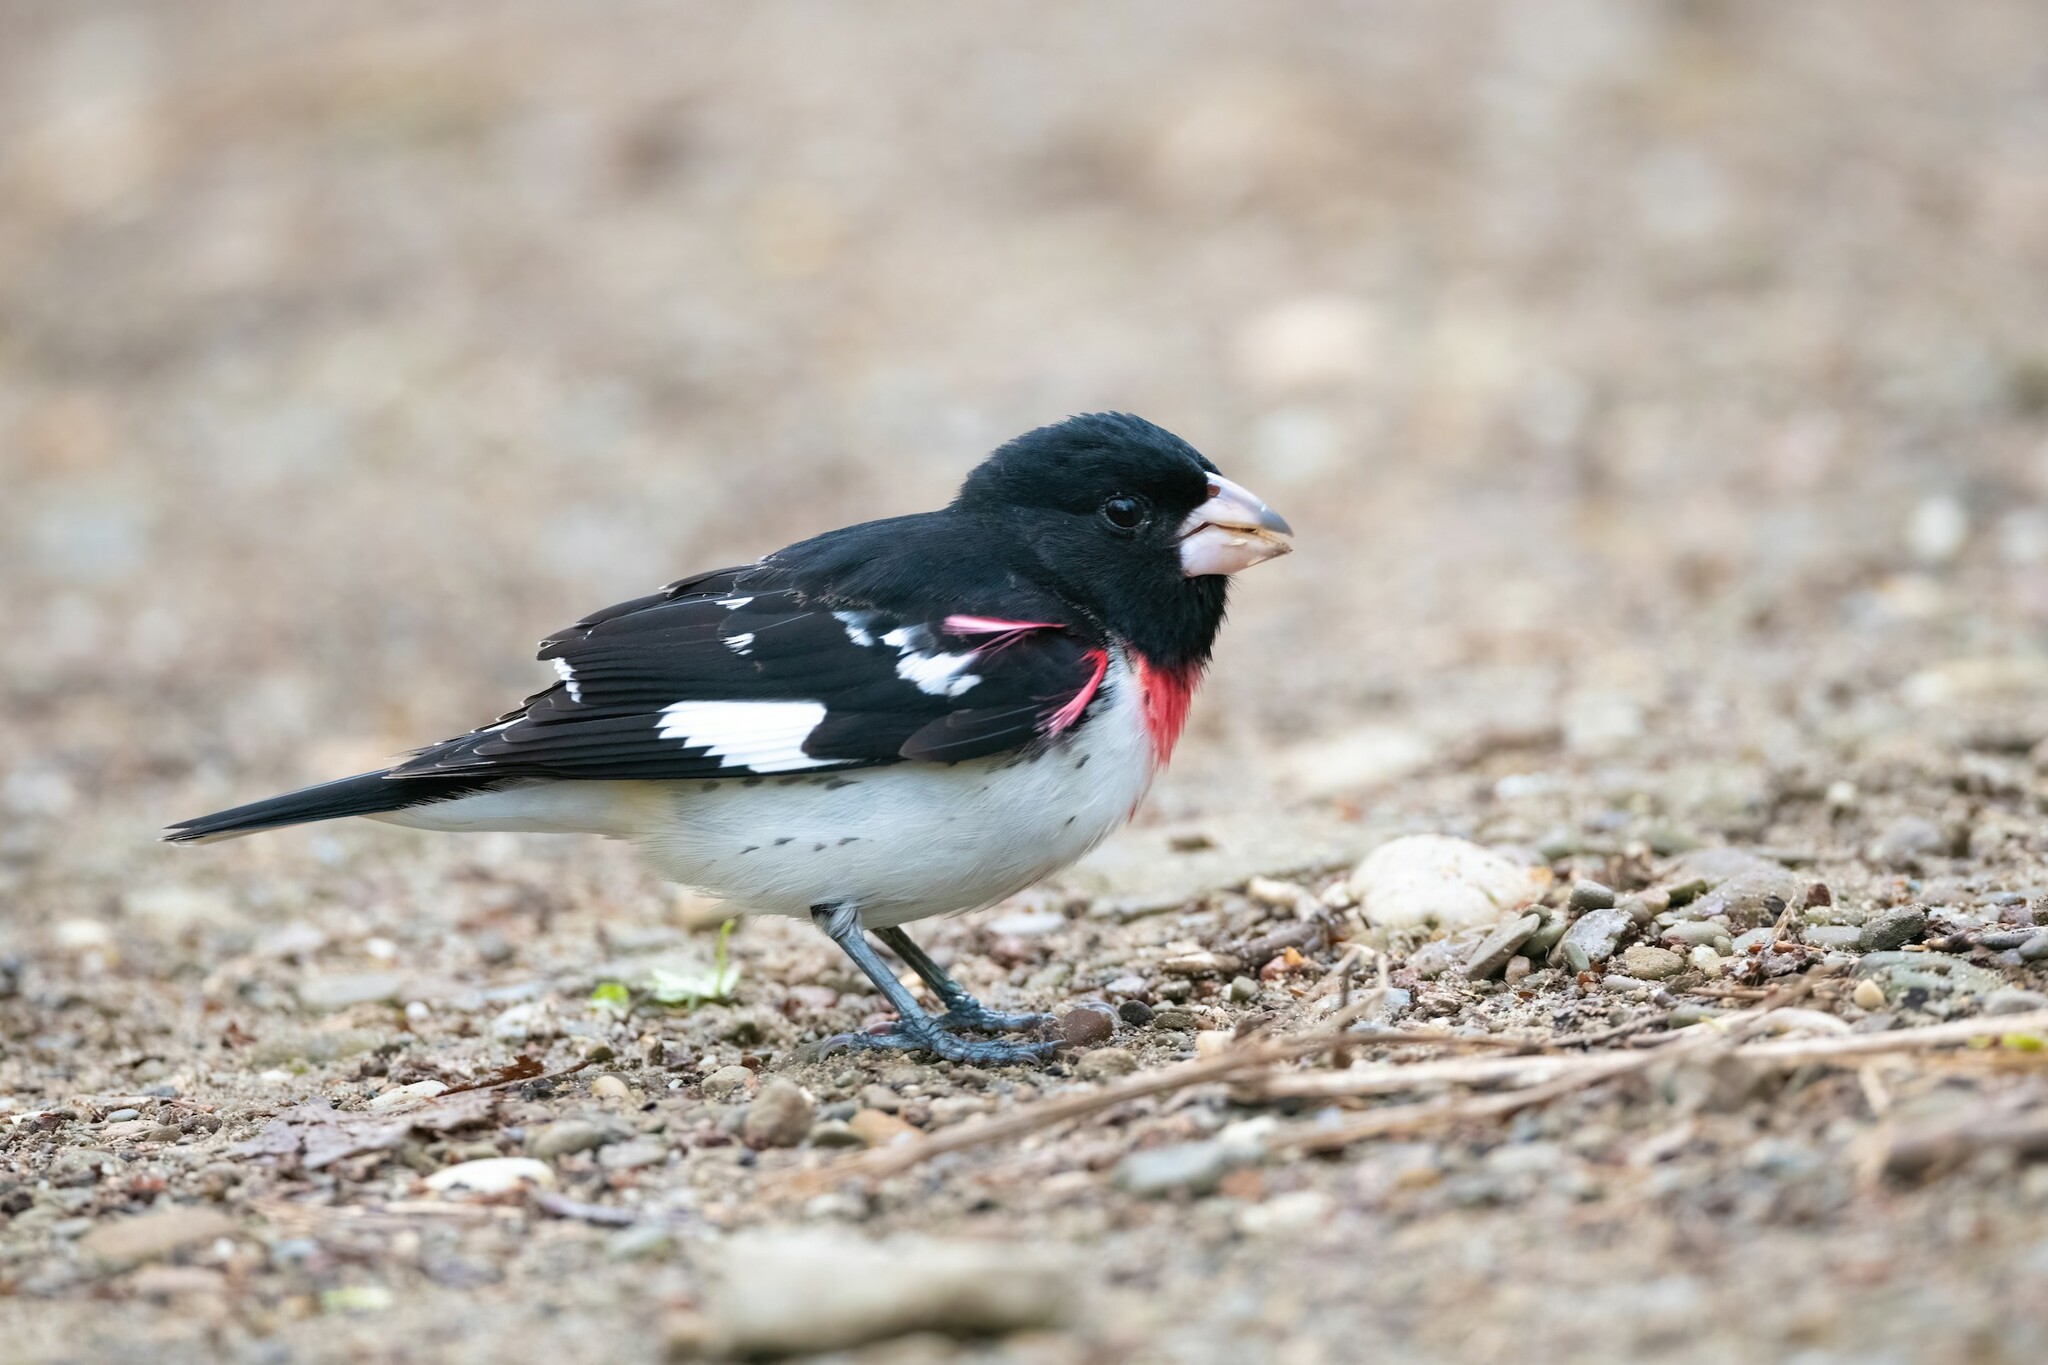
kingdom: Animalia
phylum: Chordata
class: Aves
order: Passeriformes
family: Cardinalidae
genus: Pheucticus
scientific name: Pheucticus ludovicianus
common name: Rose-breasted grosbeak
